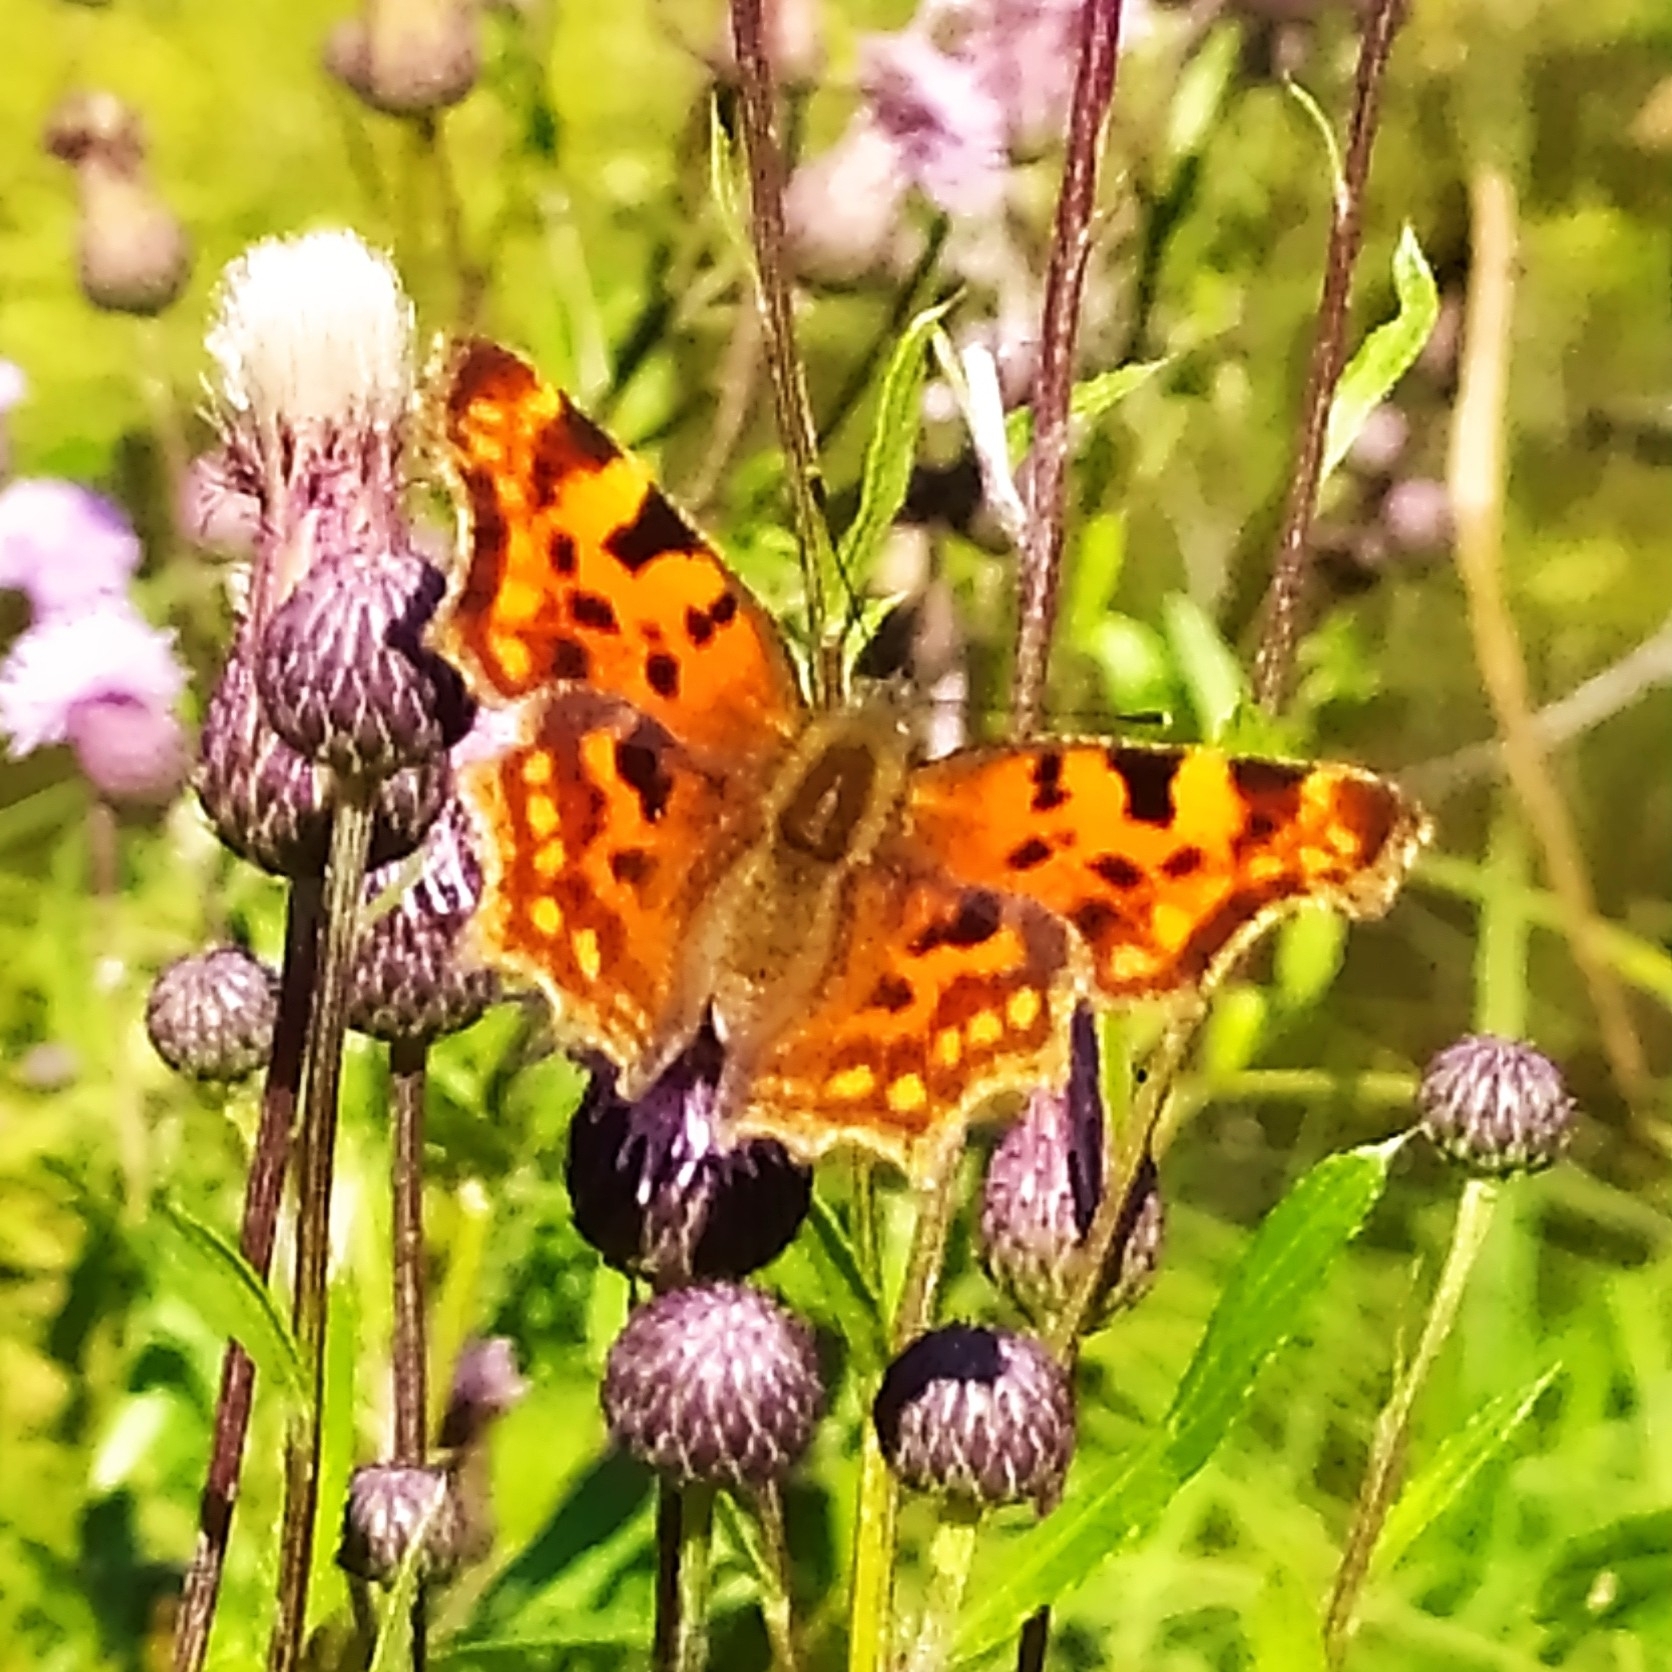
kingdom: Animalia
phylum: Arthropoda
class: Insecta
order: Lepidoptera
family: Nymphalidae
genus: Polygonia
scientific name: Polygonia c-album
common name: Comma
